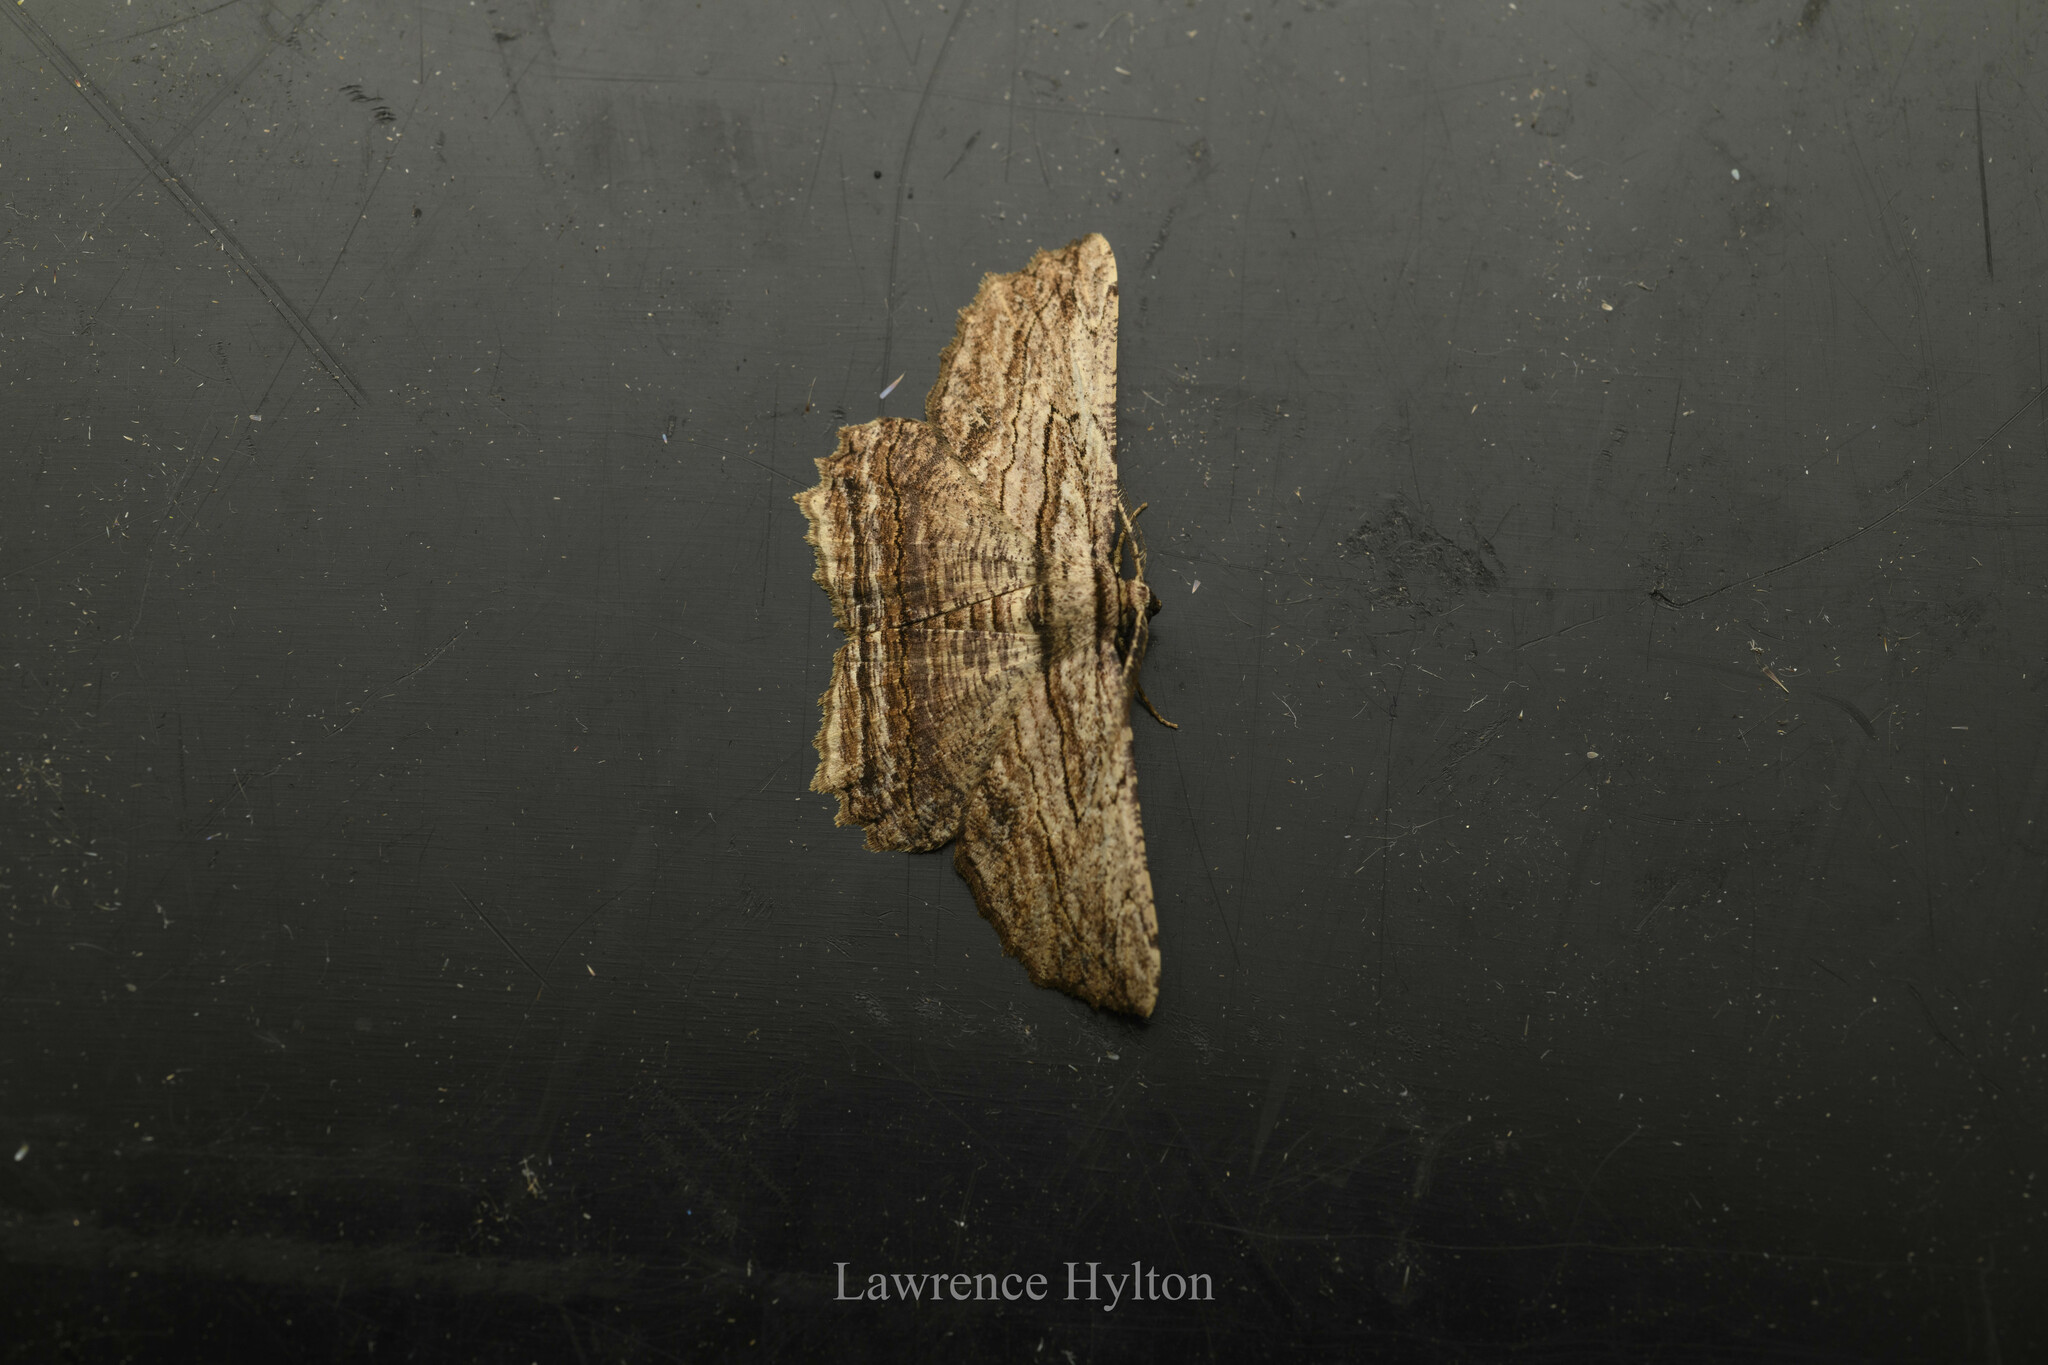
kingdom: Animalia
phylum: Arthropoda
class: Insecta
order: Lepidoptera
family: Geometridae
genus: Menophra
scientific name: Menophra subterminalis
